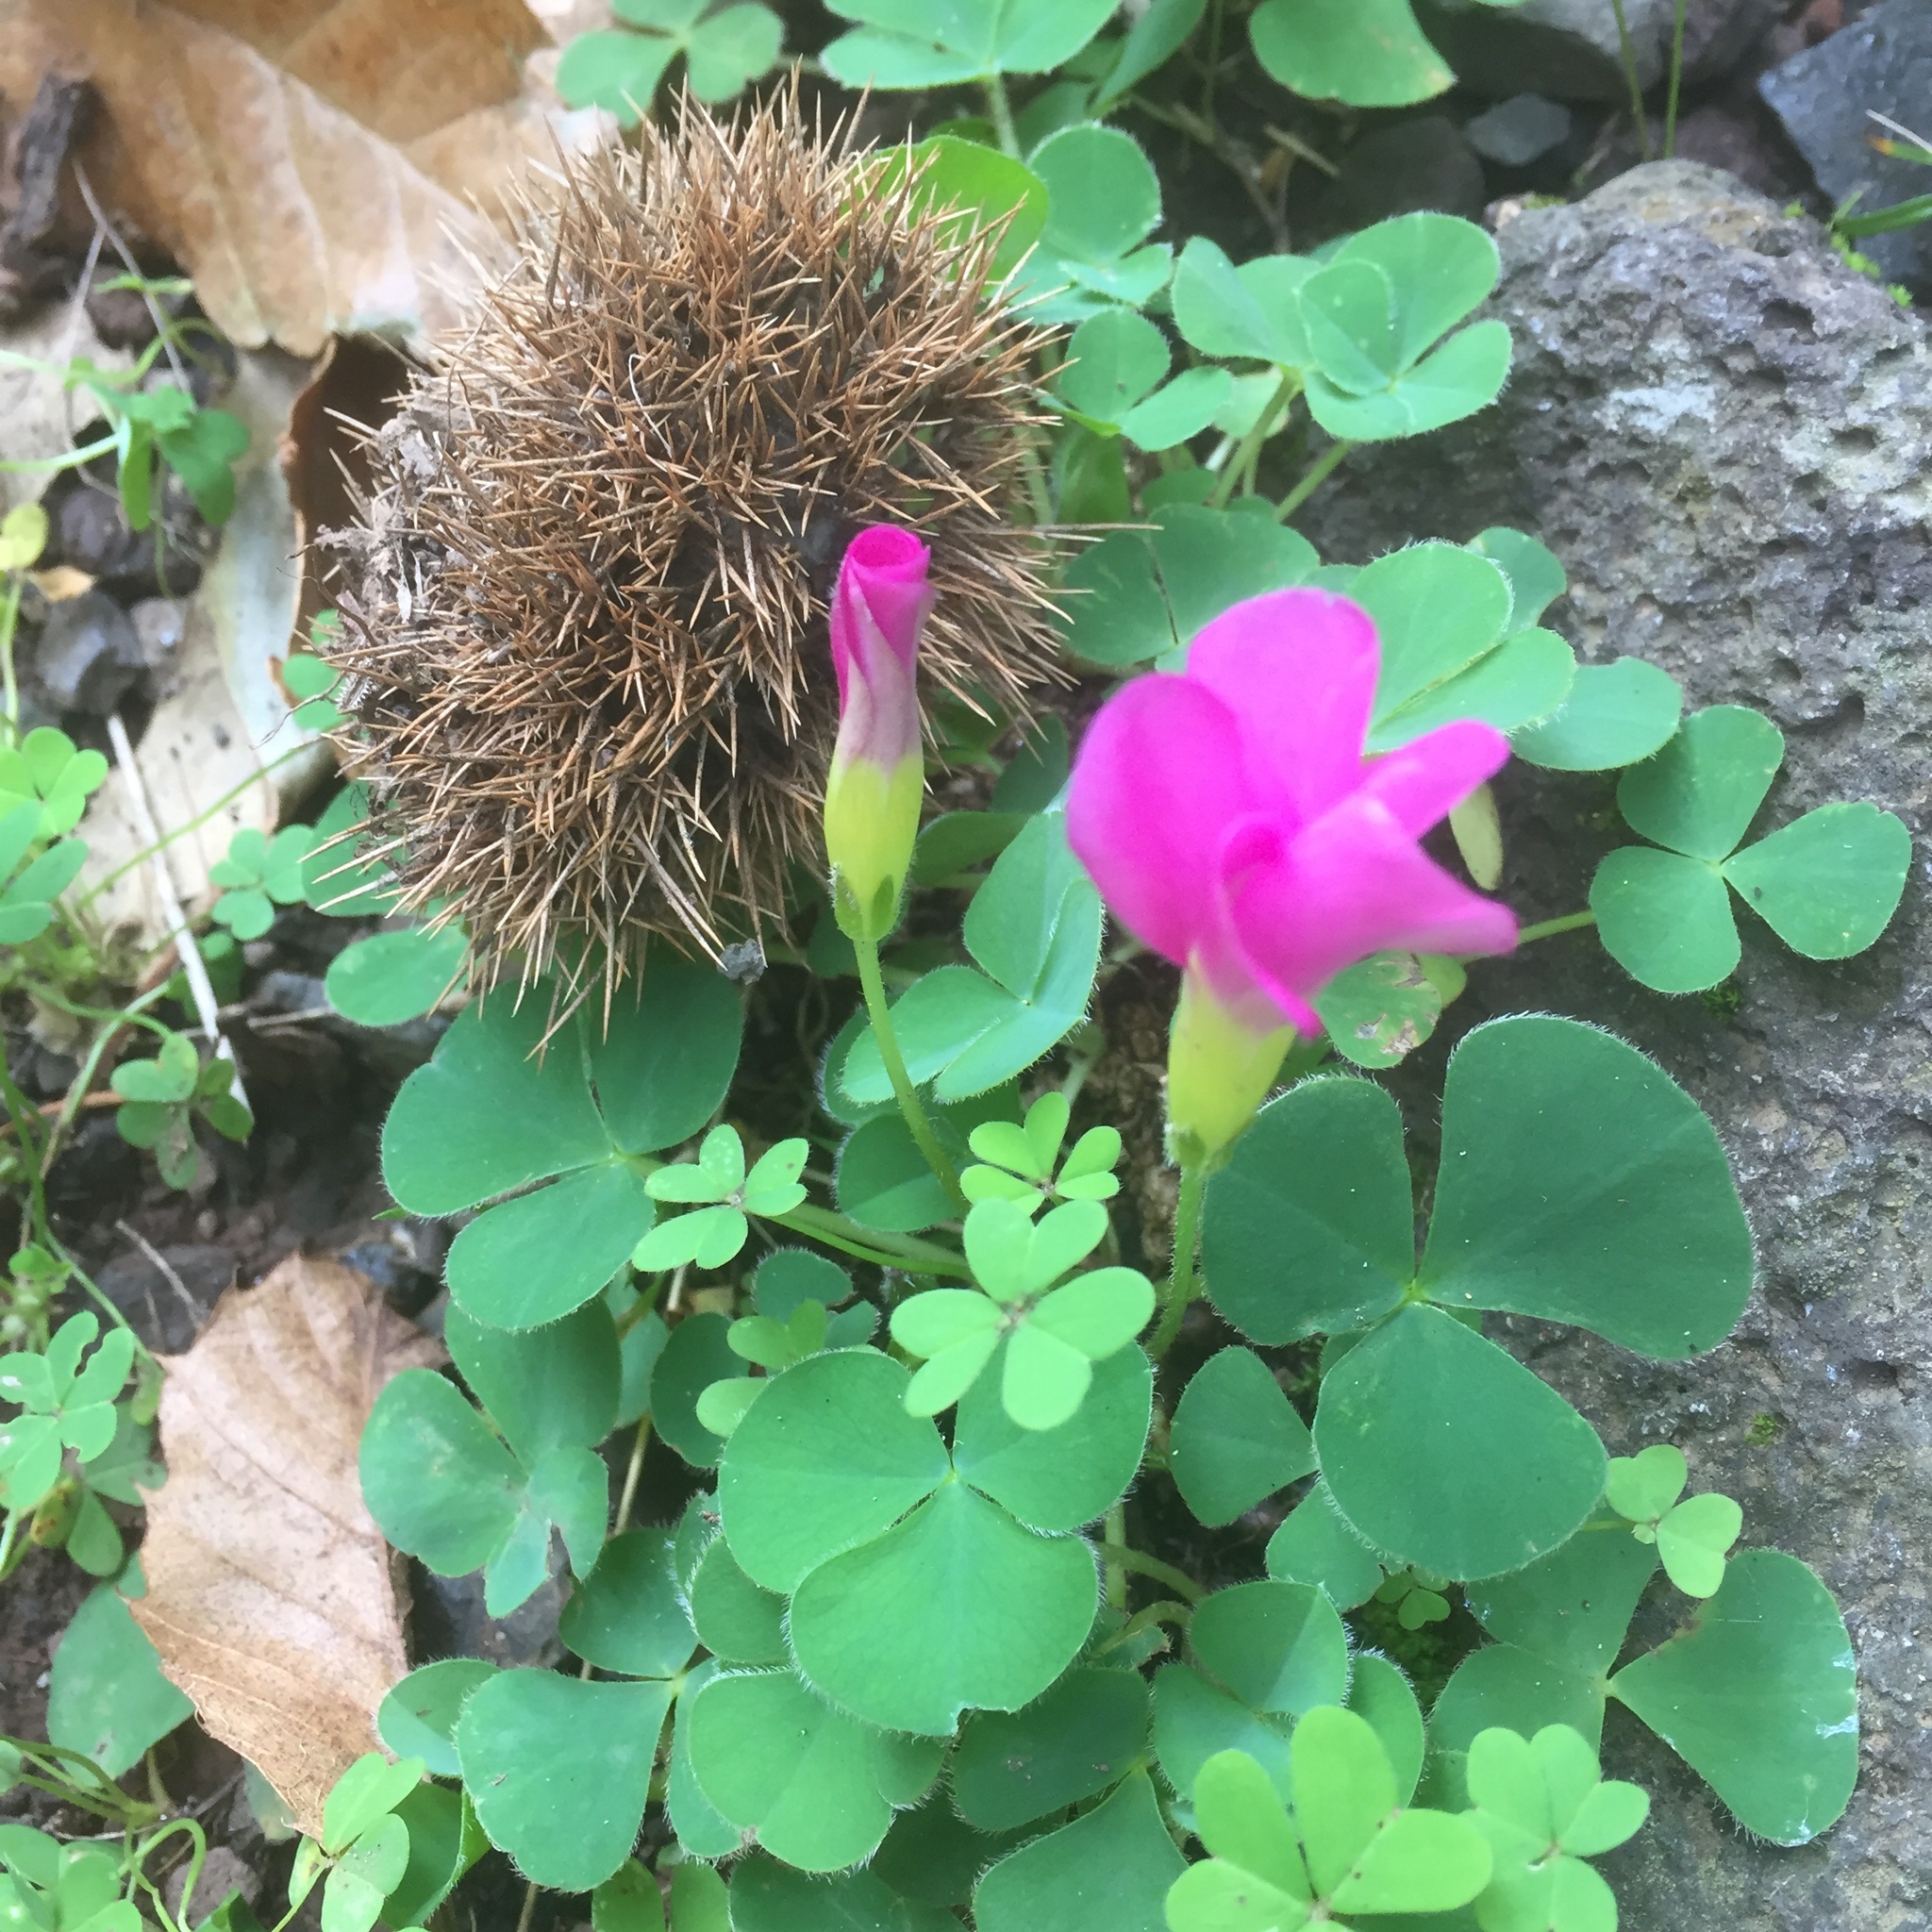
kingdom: Plantae
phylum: Tracheophyta
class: Magnoliopsida
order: Oxalidales
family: Oxalidaceae
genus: Oxalis
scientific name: Oxalis pes-caprae
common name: Bermuda-buttercup
